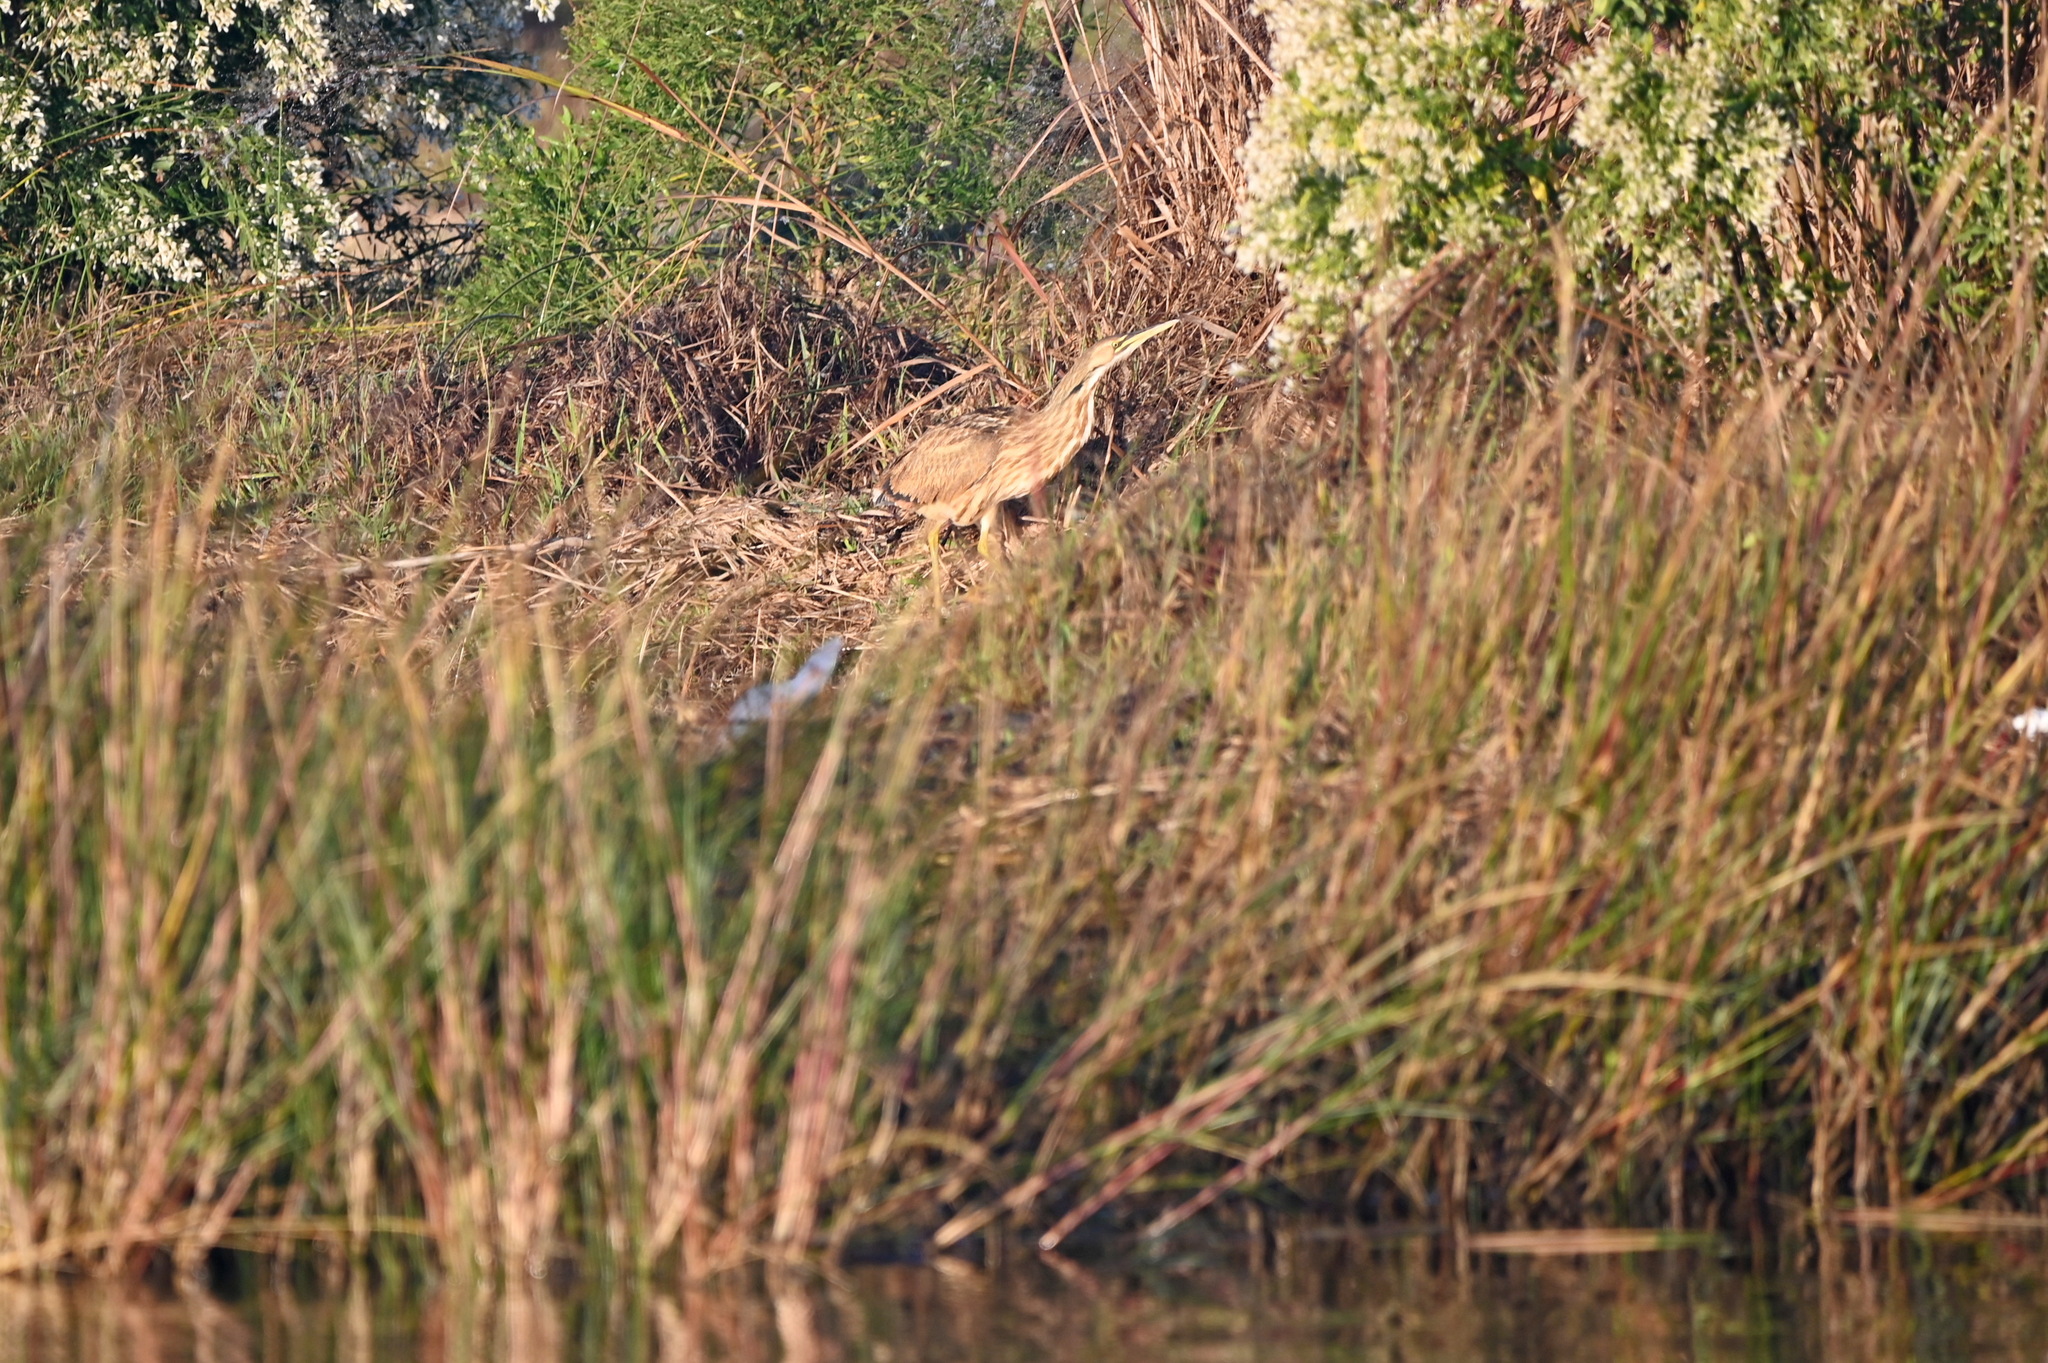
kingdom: Animalia
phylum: Chordata
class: Aves
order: Pelecaniformes
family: Ardeidae
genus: Botaurus
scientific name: Botaurus lentiginosus
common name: American bittern
